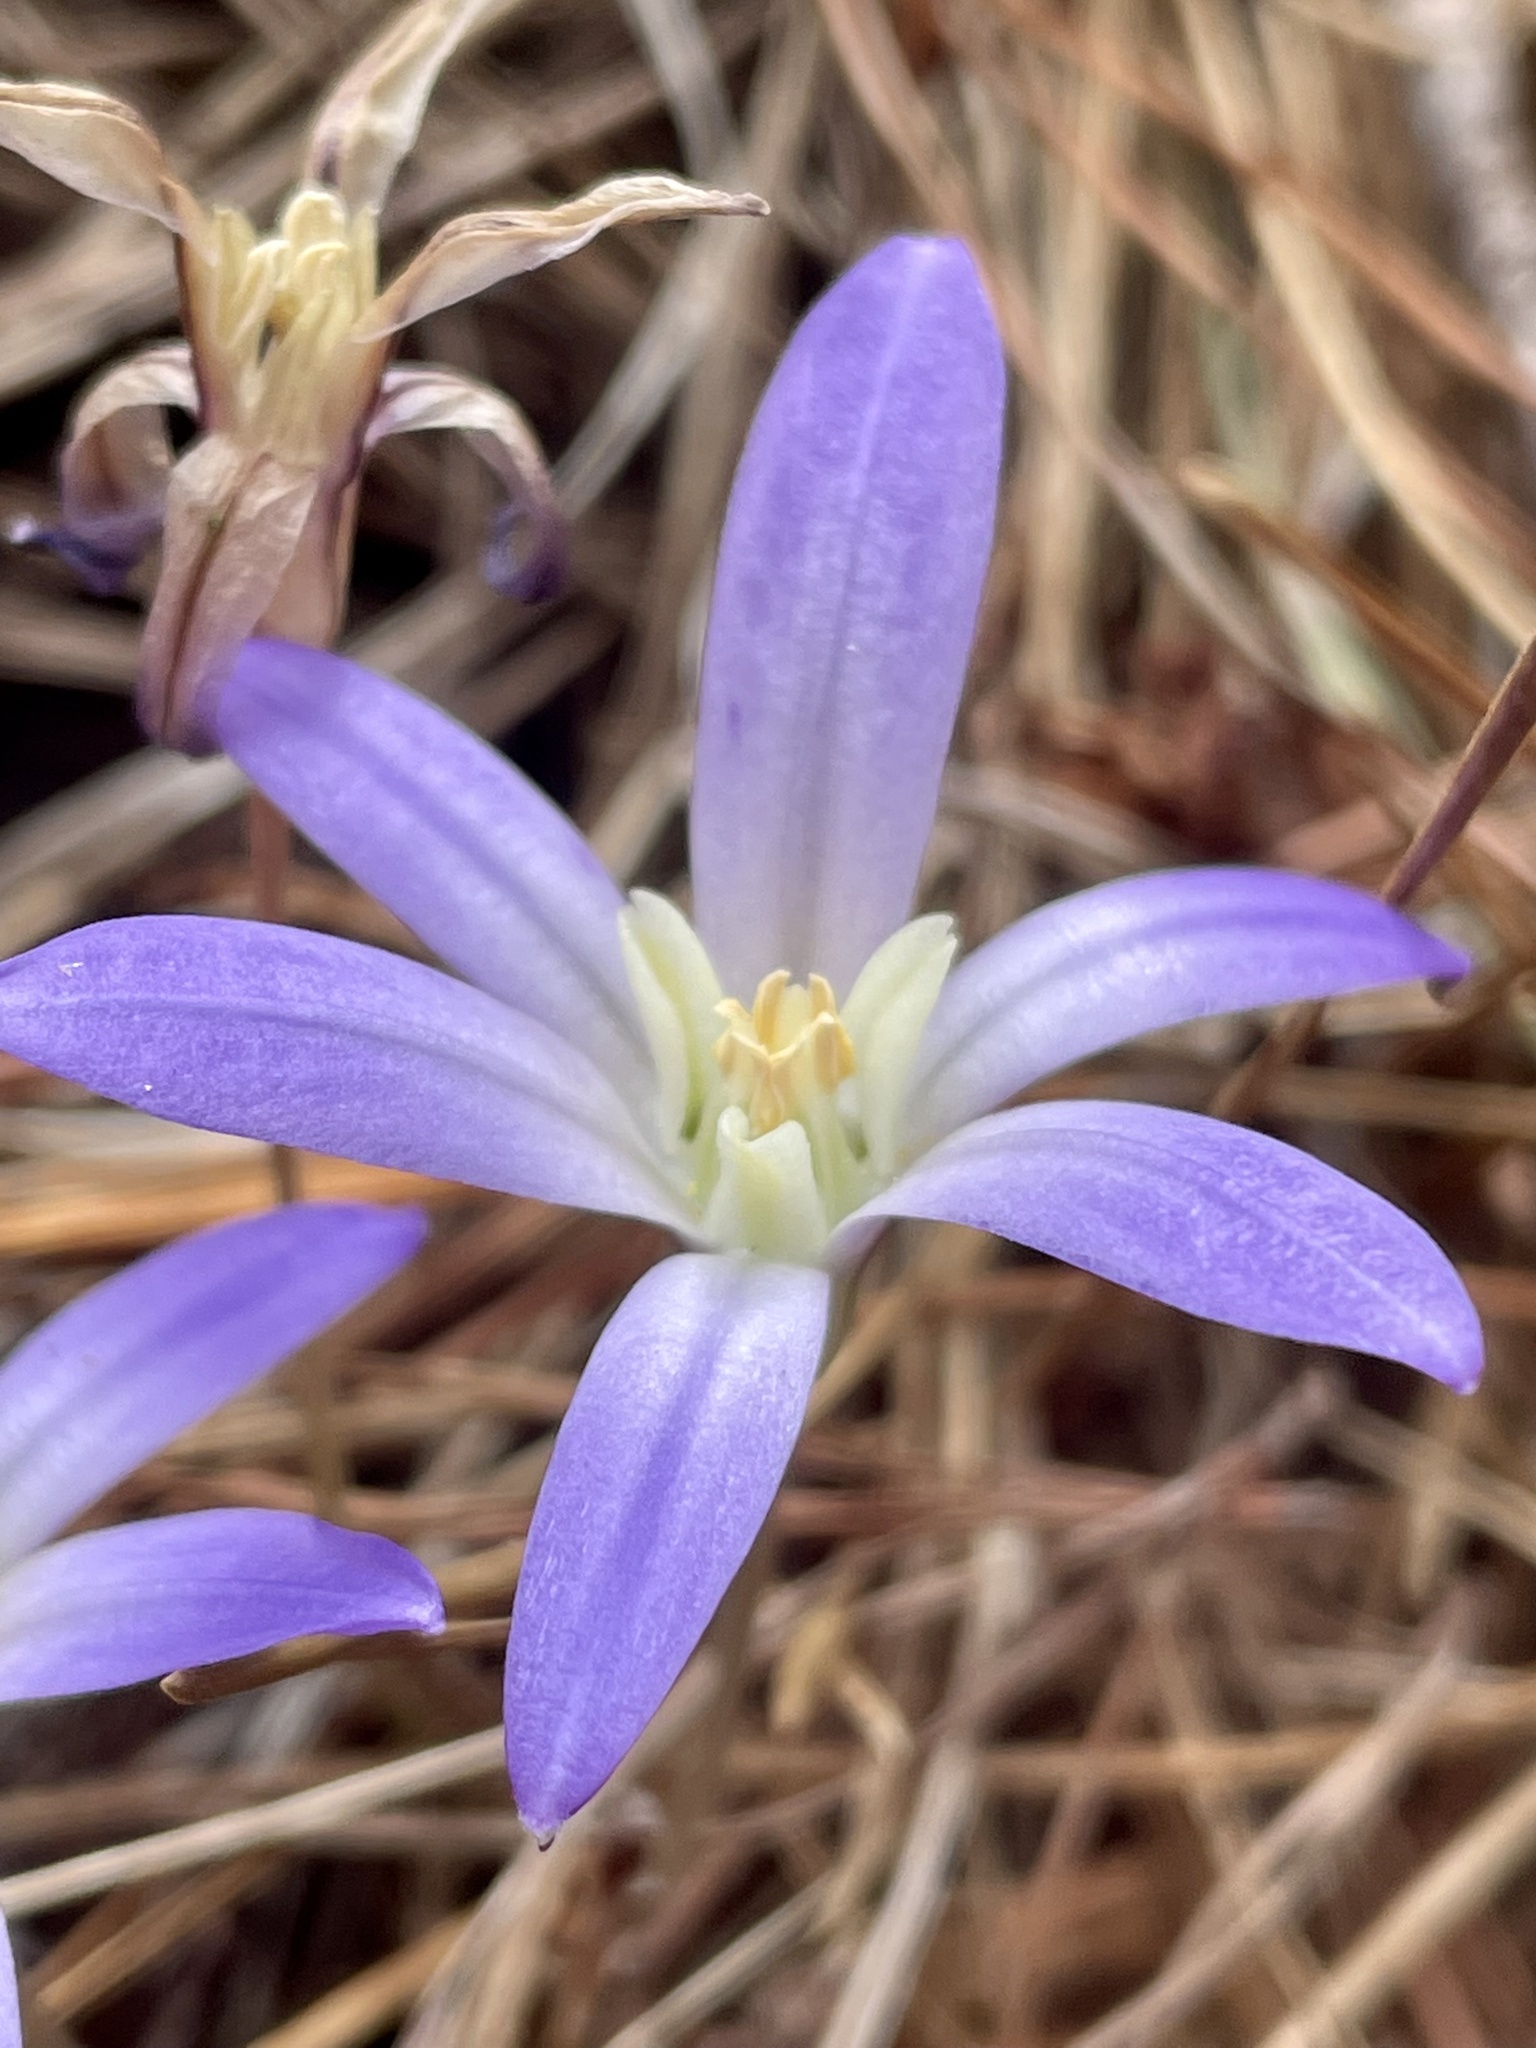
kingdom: Plantae
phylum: Tracheophyta
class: Liliopsida
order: Asparagales
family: Asparagaceae
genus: Brodiaea
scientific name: Brodiaea terrestris
